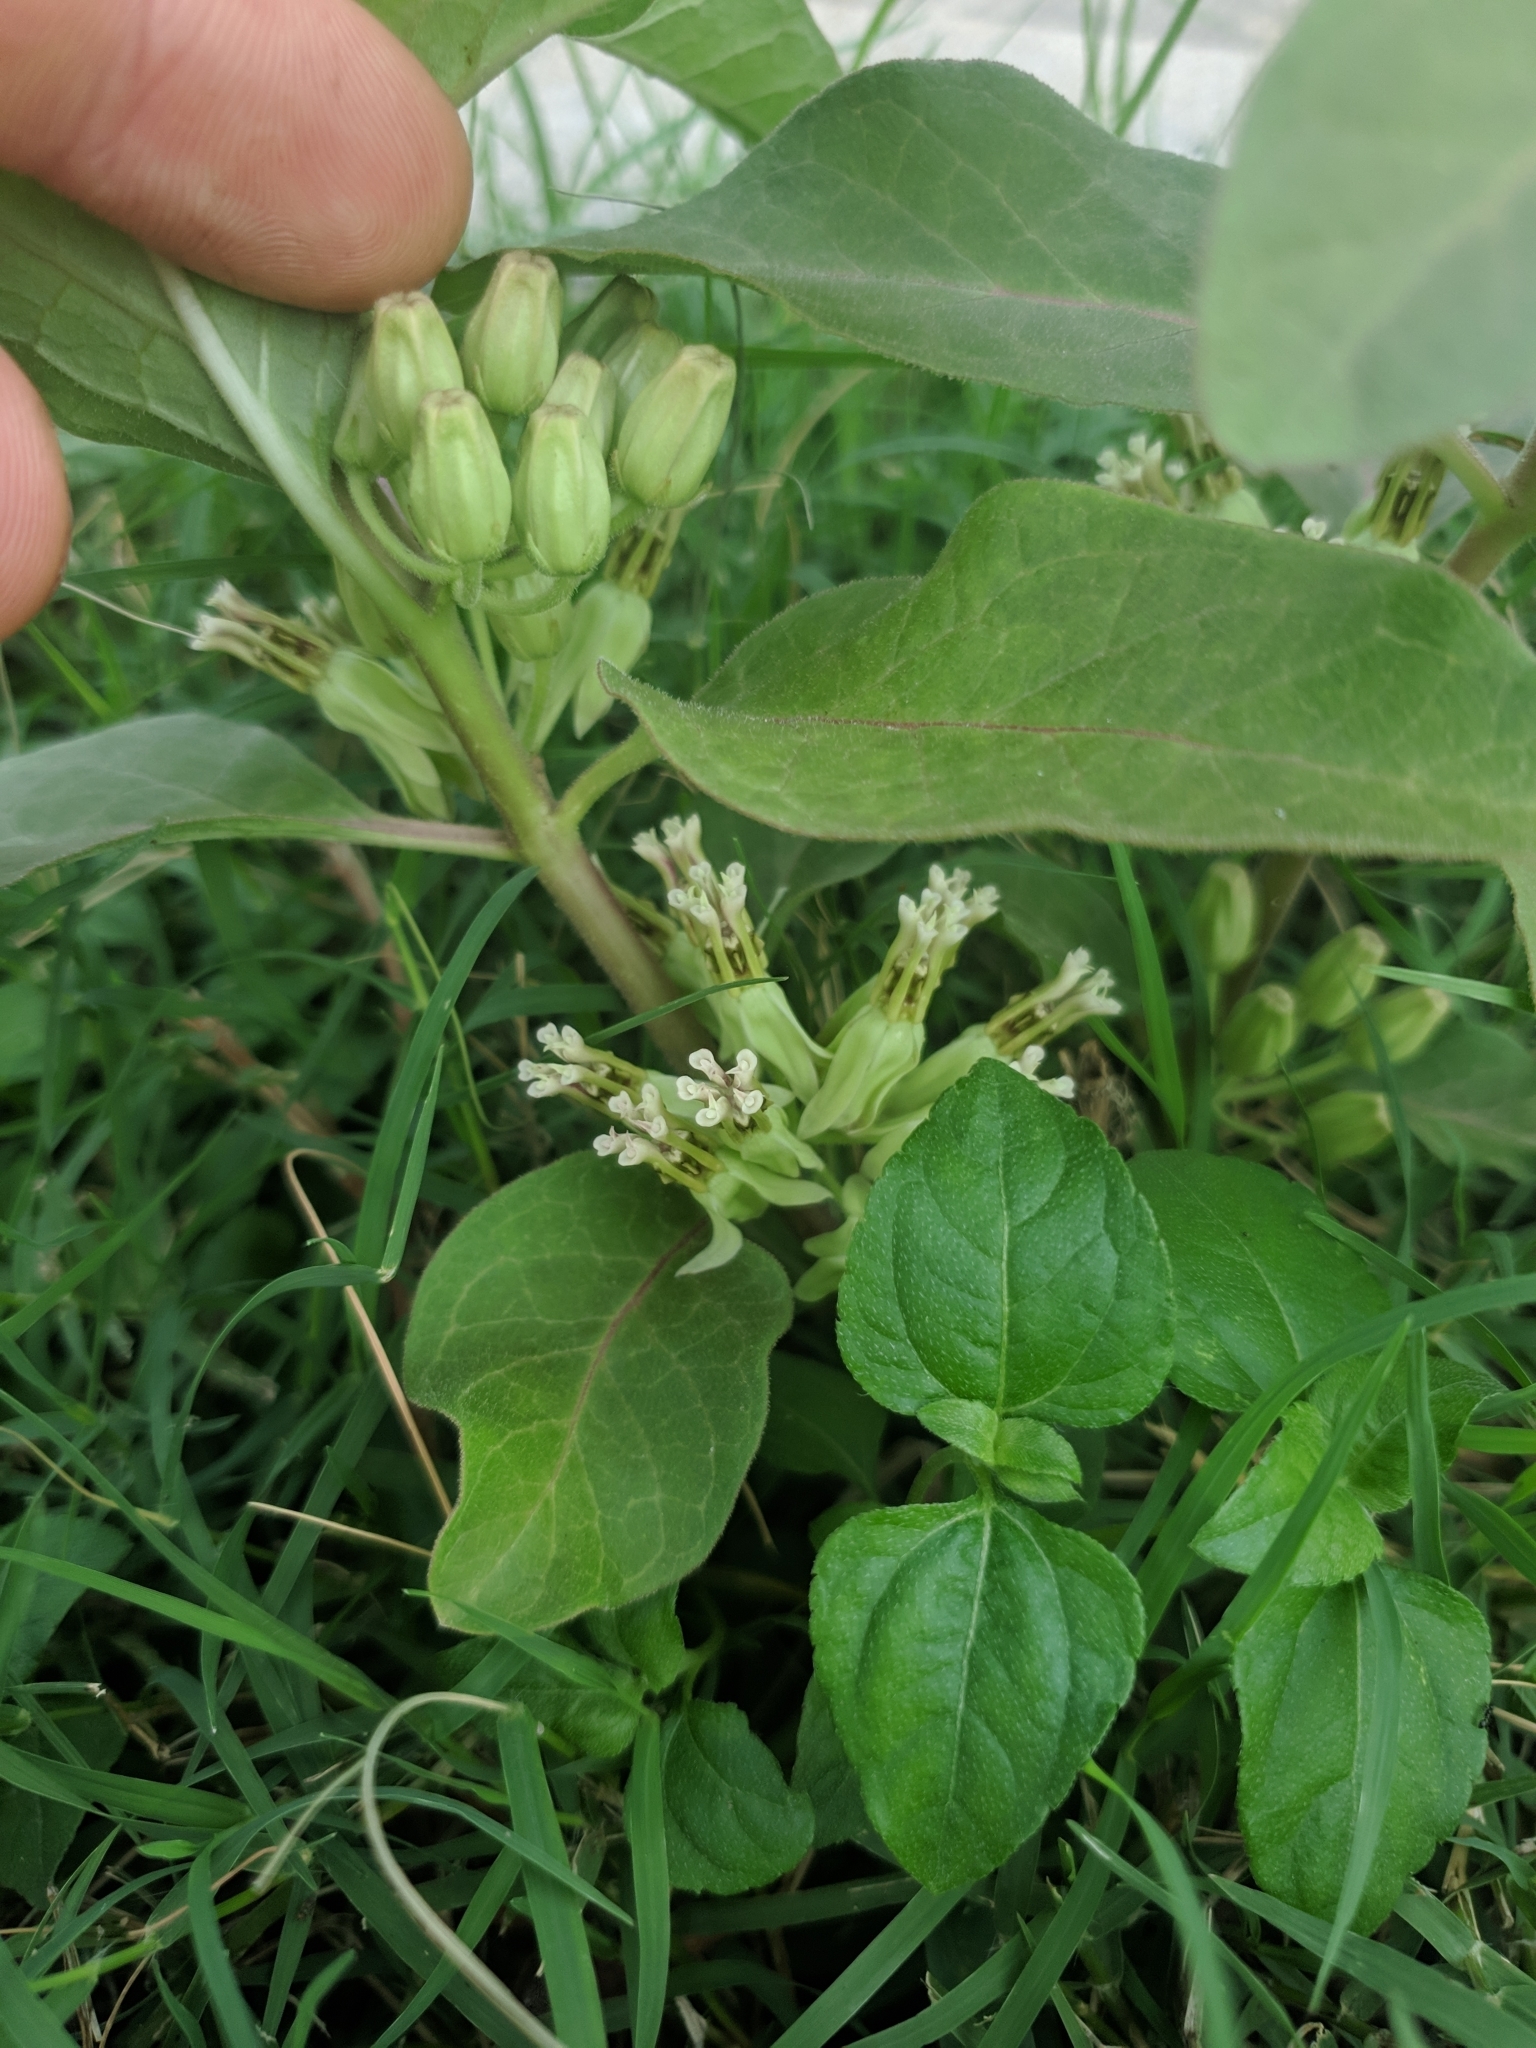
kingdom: Plantae
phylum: Tracheophyta
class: Magnoliopsida
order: Gentianales
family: Apocynaceae
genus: Asclepias
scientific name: Asclepias oenotheroides
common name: Zizotes milkweed
